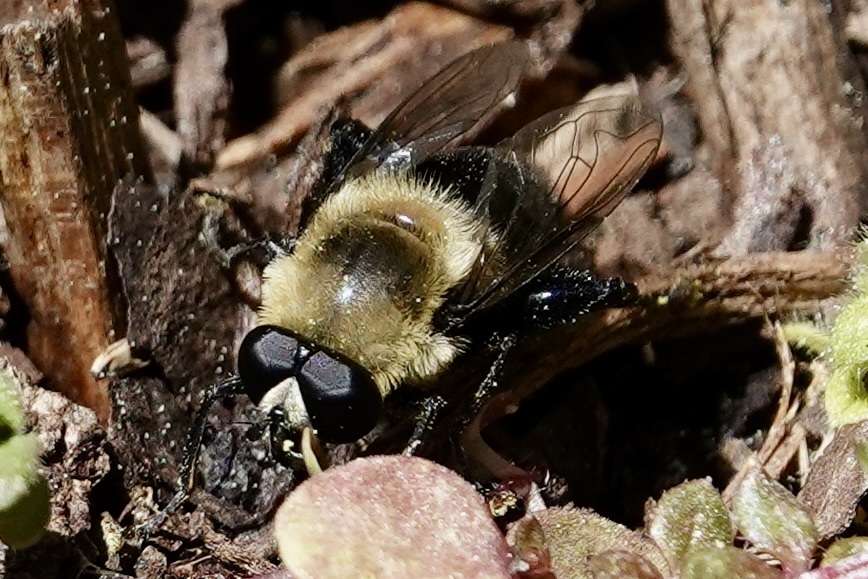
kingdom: Animalia
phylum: Arthropoda
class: Insecta
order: Diptera
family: Syrphidae
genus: Imatisma
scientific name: Imatisma bautias
